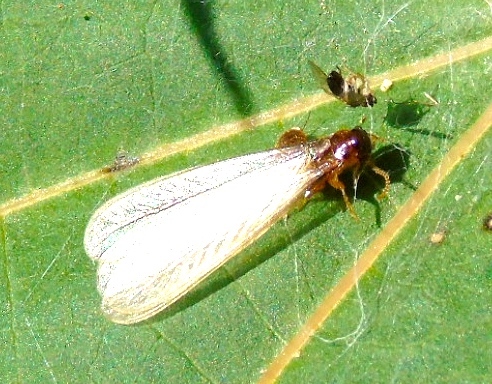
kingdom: Animalia
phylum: Arthropoda
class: Insecta
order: Blattodea
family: Rhinotermitidae
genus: Coptotermes
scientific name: Coptotermes gestroi
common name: Subterranean termite
